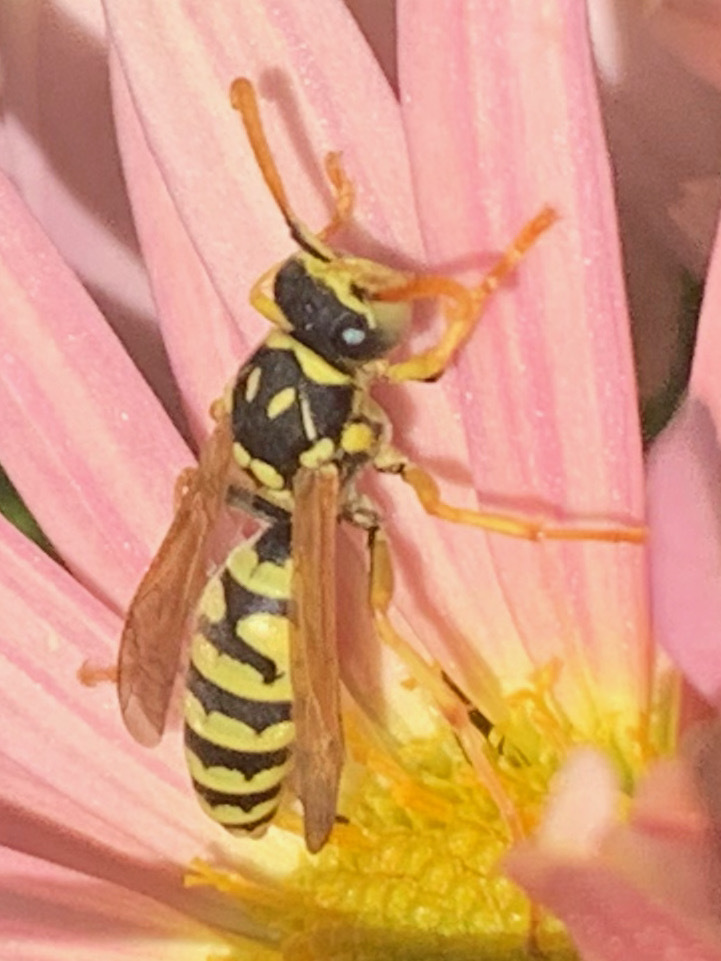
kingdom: Animalia
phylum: Arthropoda
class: Insecta
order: Hymenoptera
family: Eumenidae
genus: Polistes
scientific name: Polistes dominula
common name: Paper wasp
